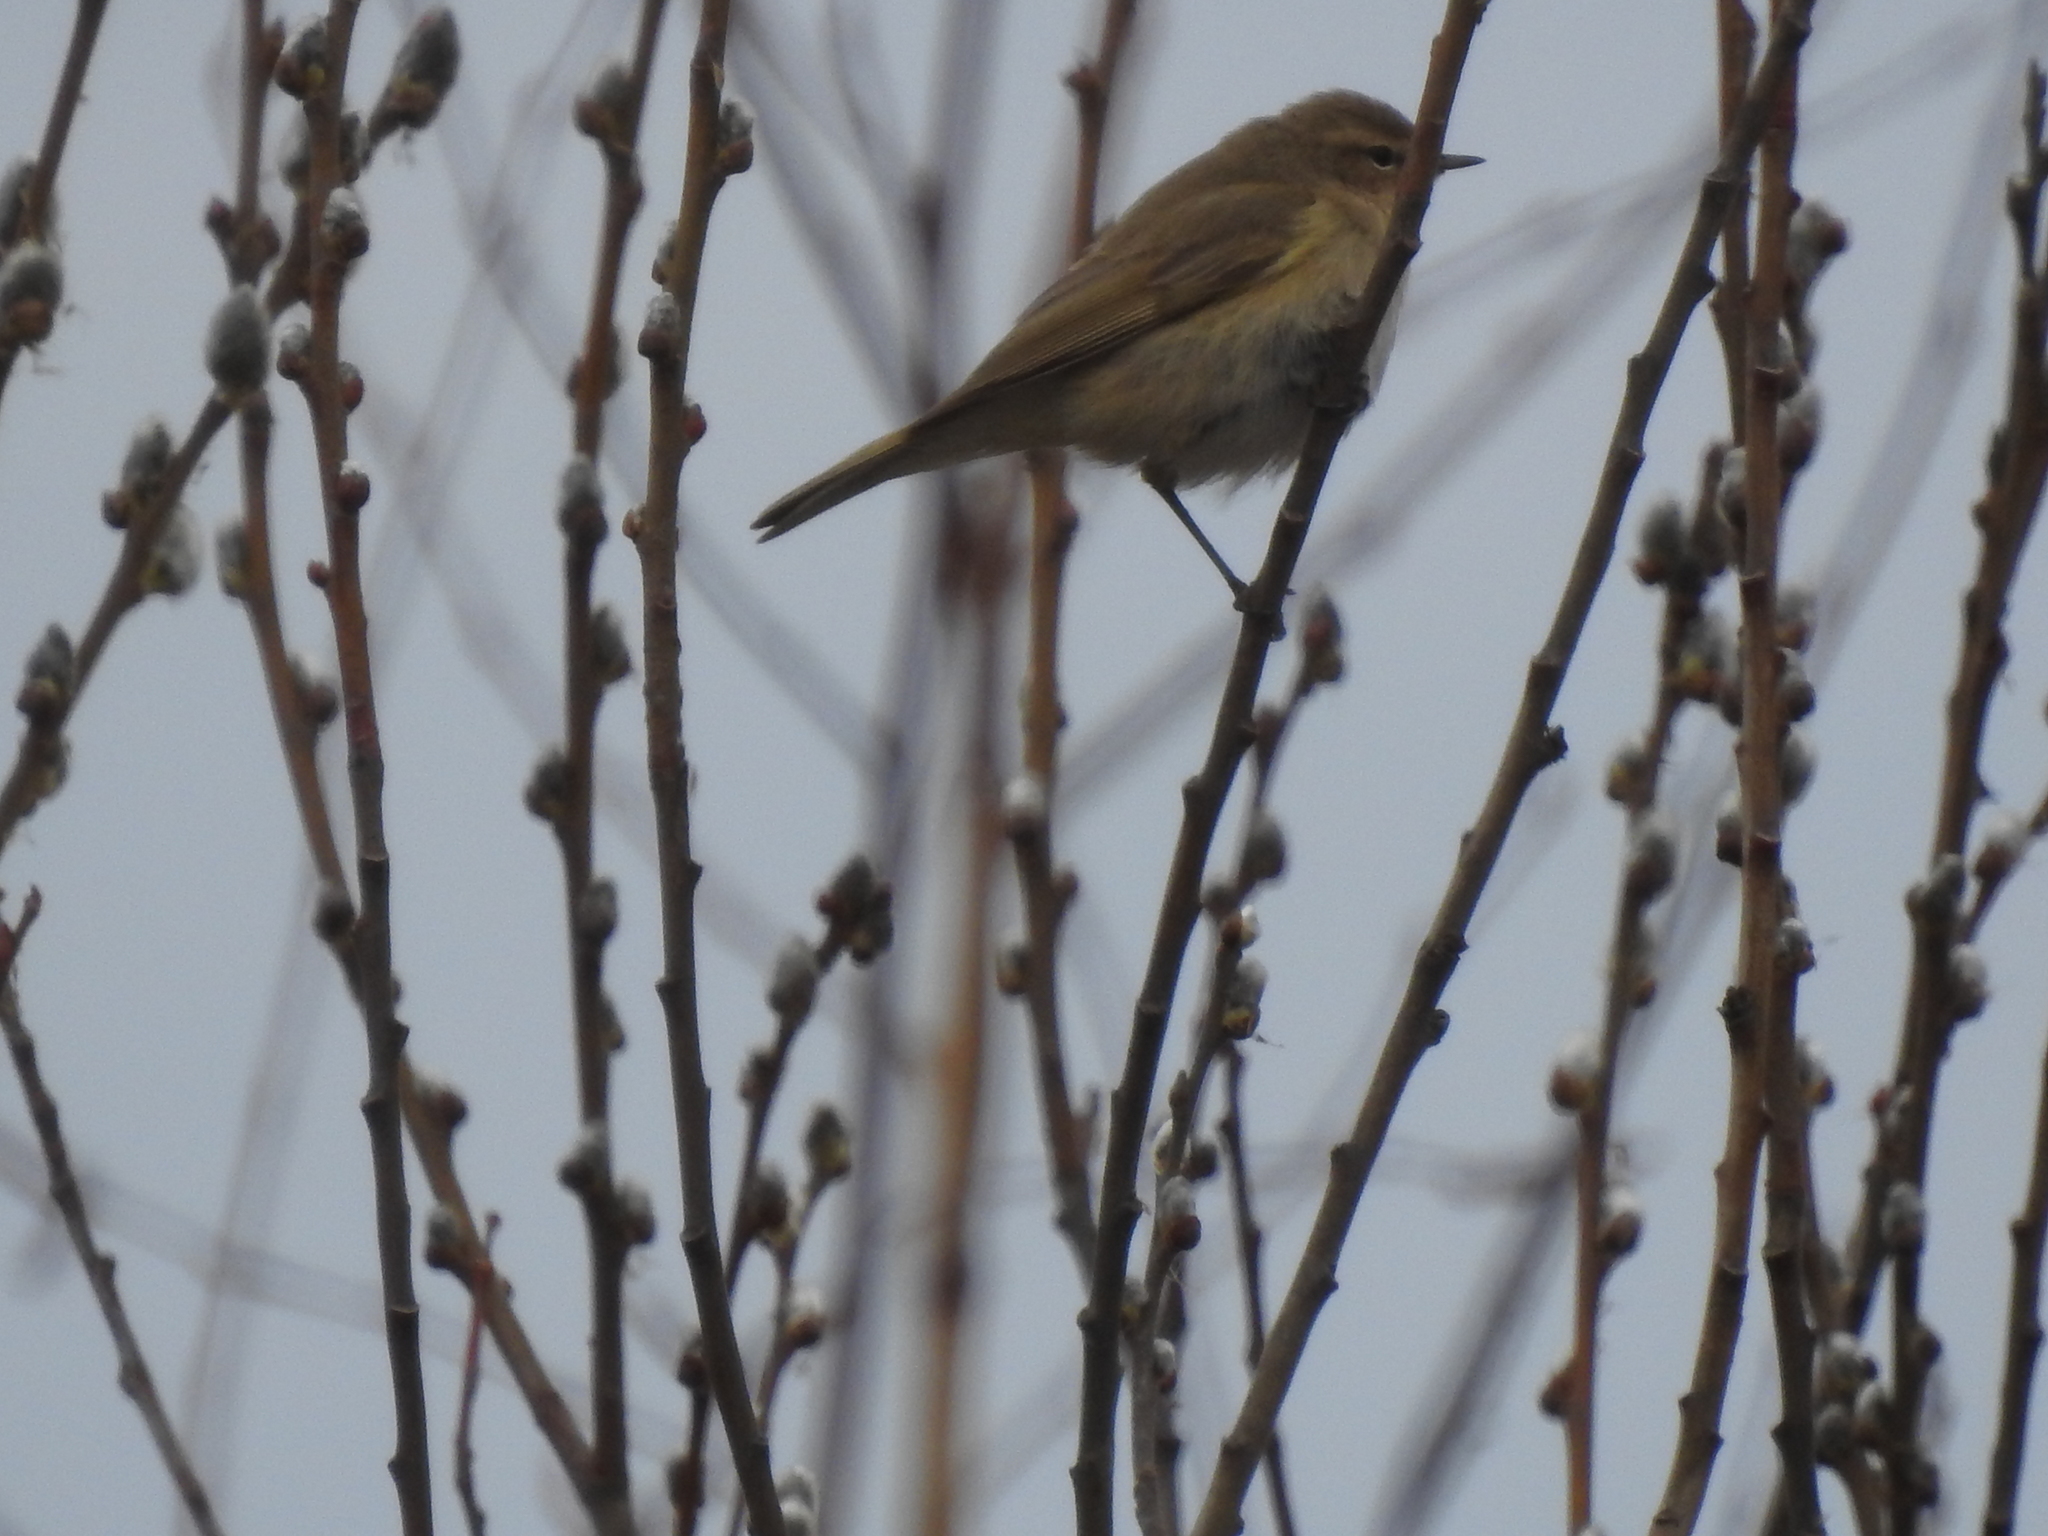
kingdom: Animalia
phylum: Chordata
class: Aves
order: Passeriformes
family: Phylloscopidae
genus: Phylloscopus
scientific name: Phylloscopus collybita
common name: Common chiffchaff
